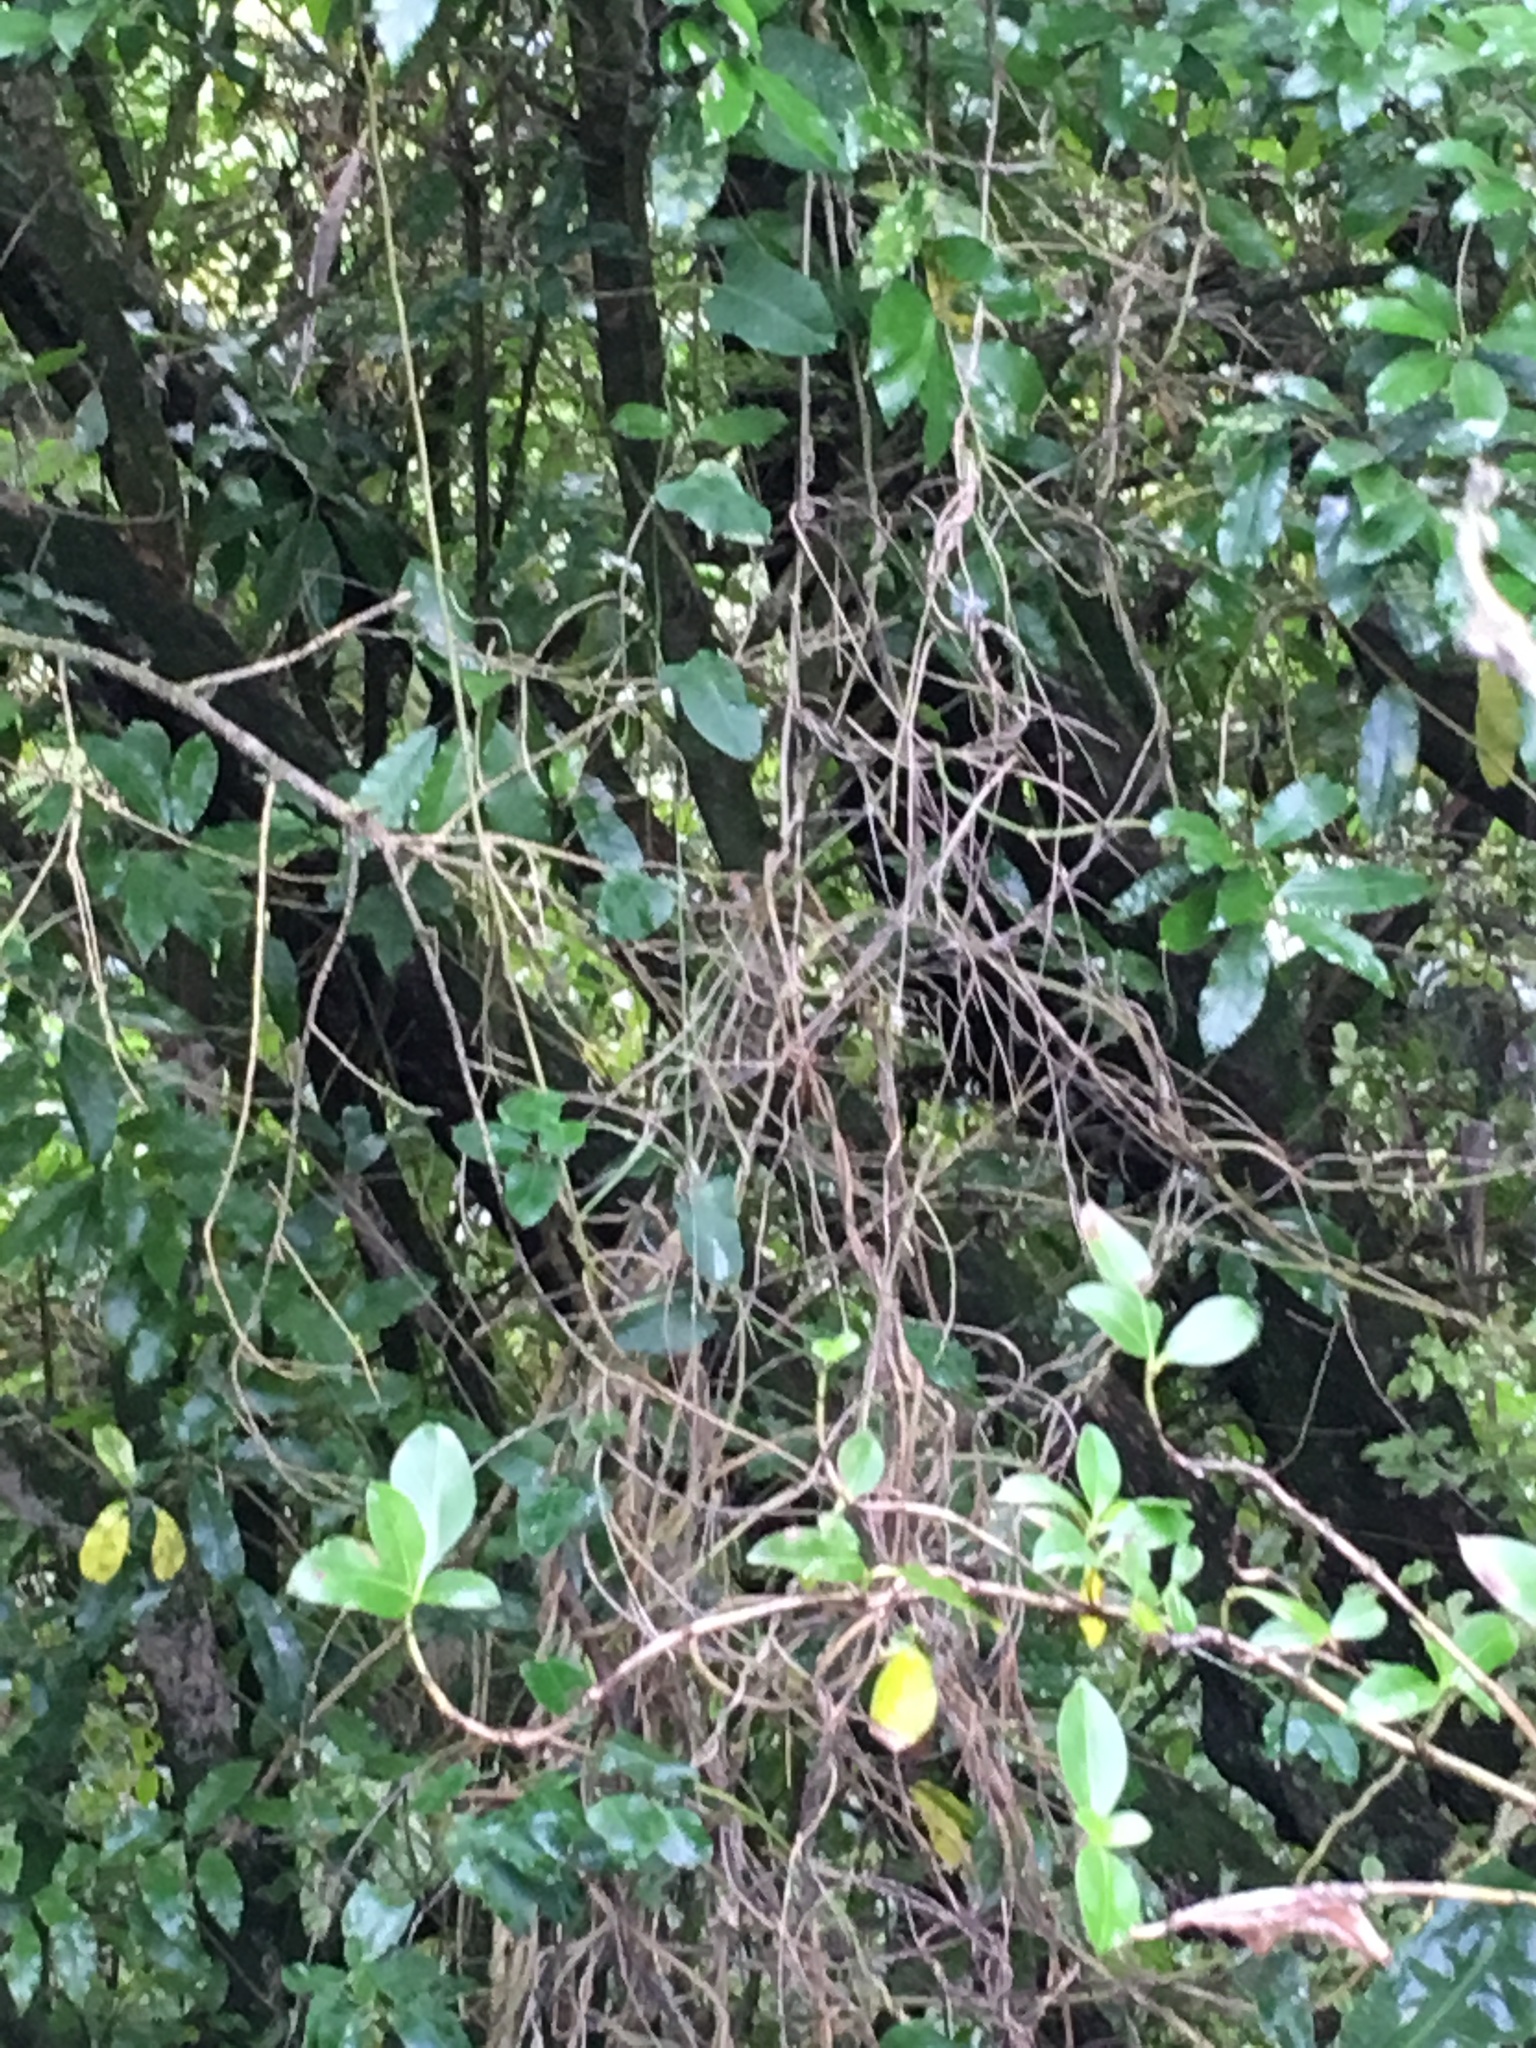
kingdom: Plantae
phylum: Tracheophyta
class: Magnoliopsida
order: Gentianales
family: Apocynaceae
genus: Araujia
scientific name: Araujia sericifera
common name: White bladderflower
